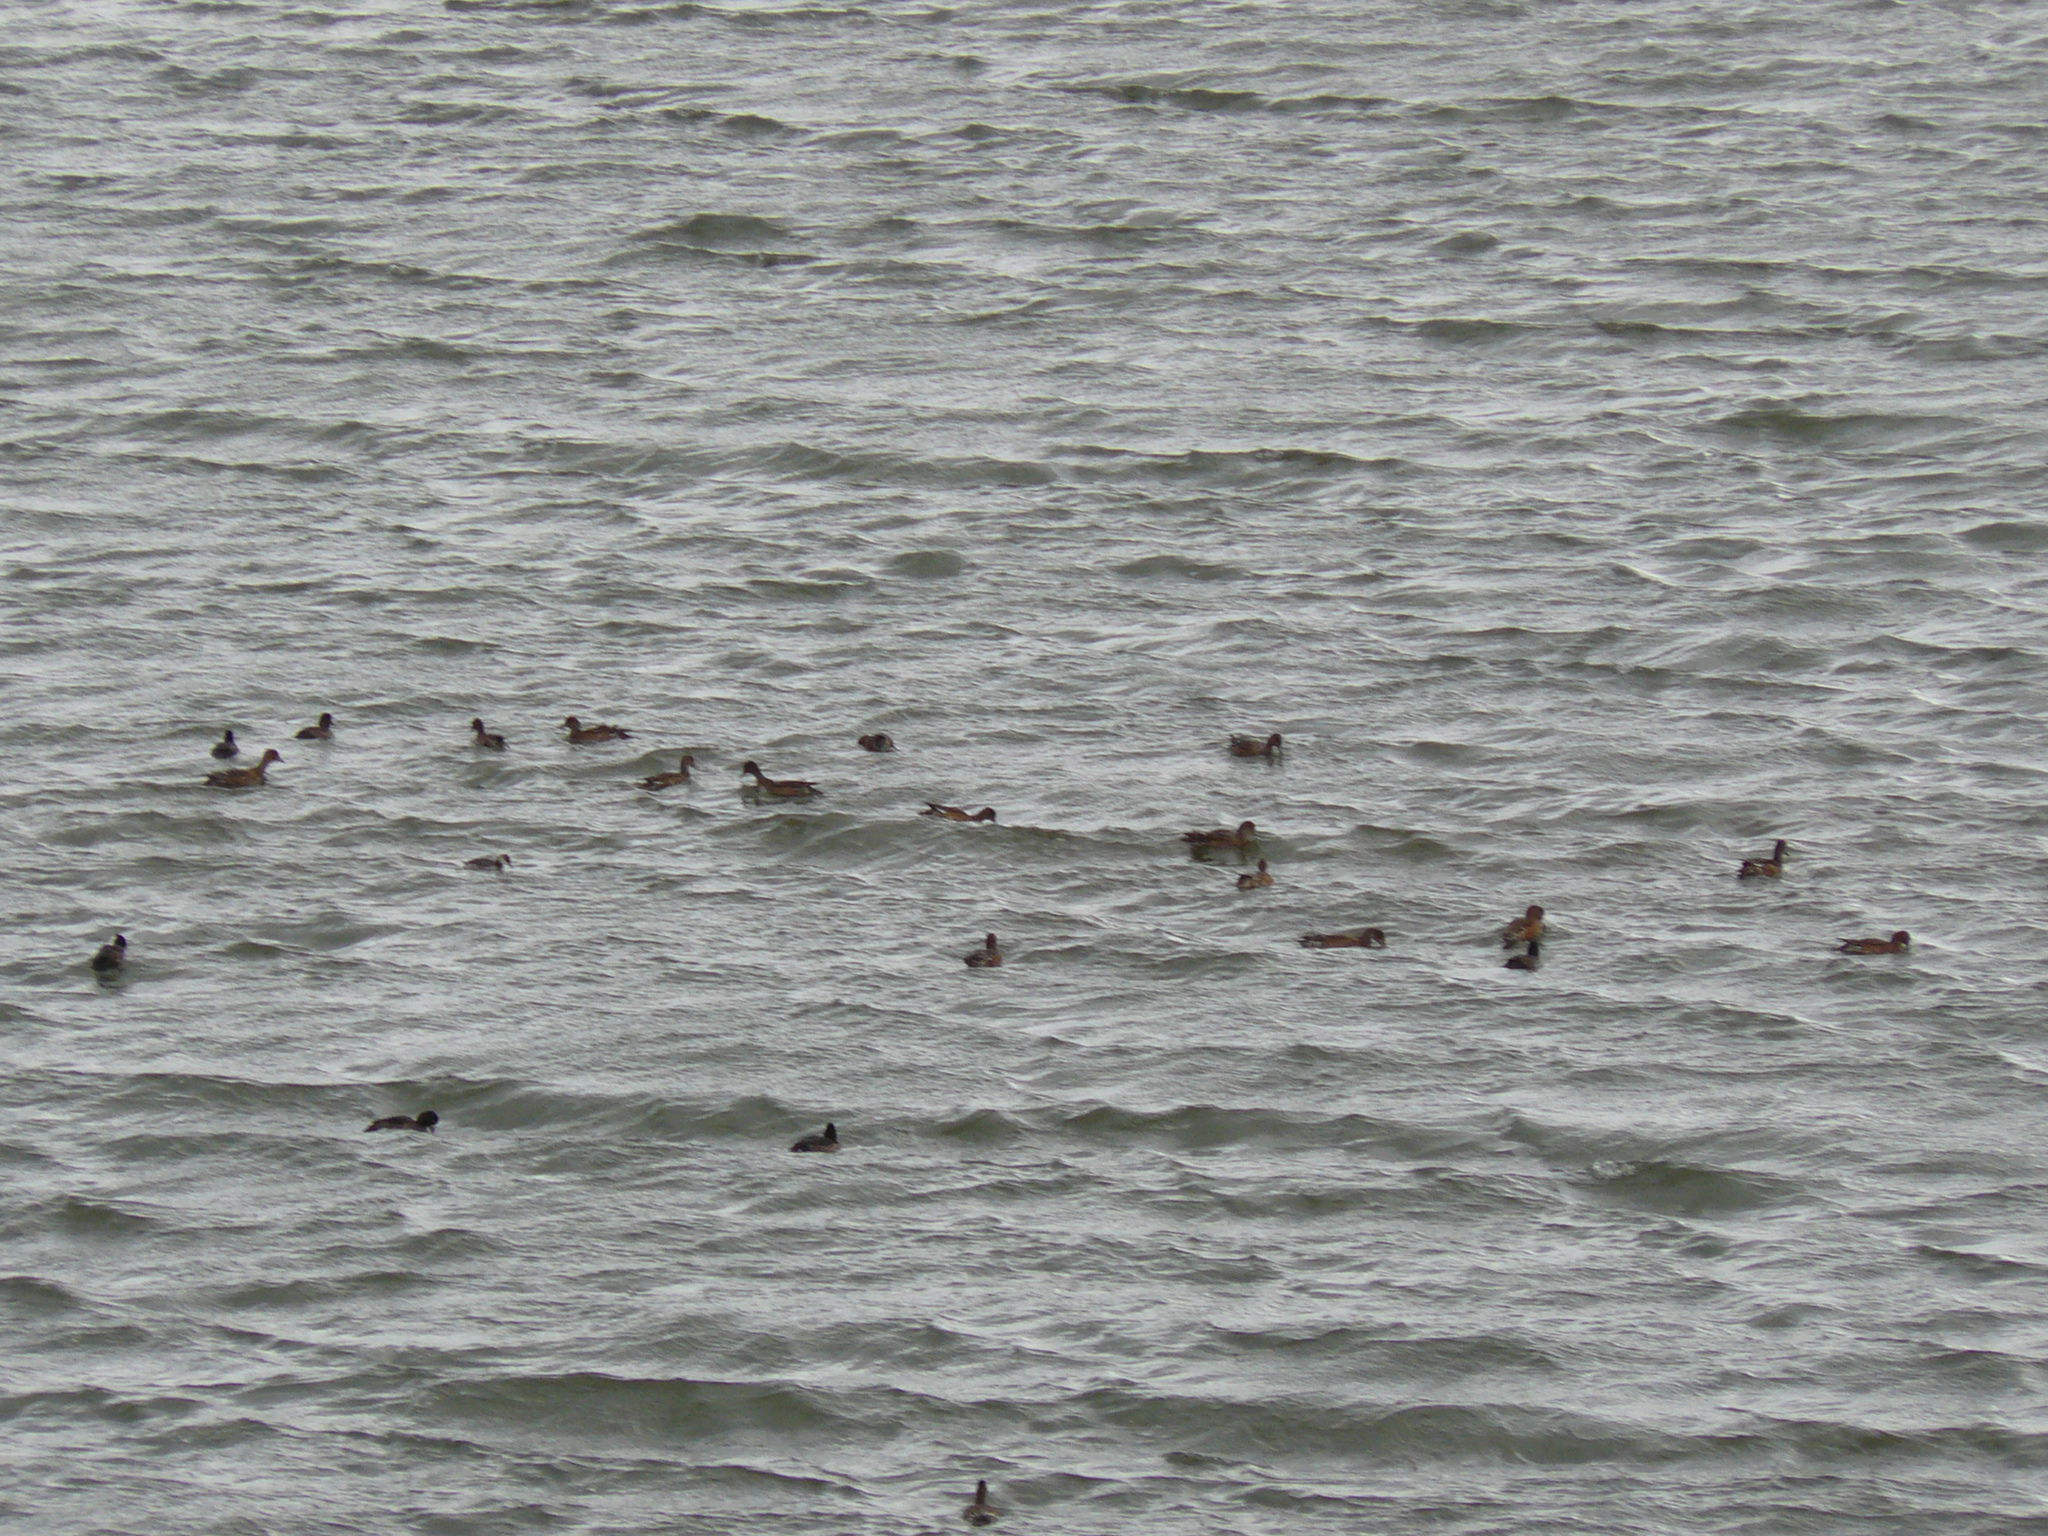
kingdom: Animalia
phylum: Chordata
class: Aves
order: Anseriformes
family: Anatidae
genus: Mareca
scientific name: Mareca penelope
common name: Eurasian wigeon
